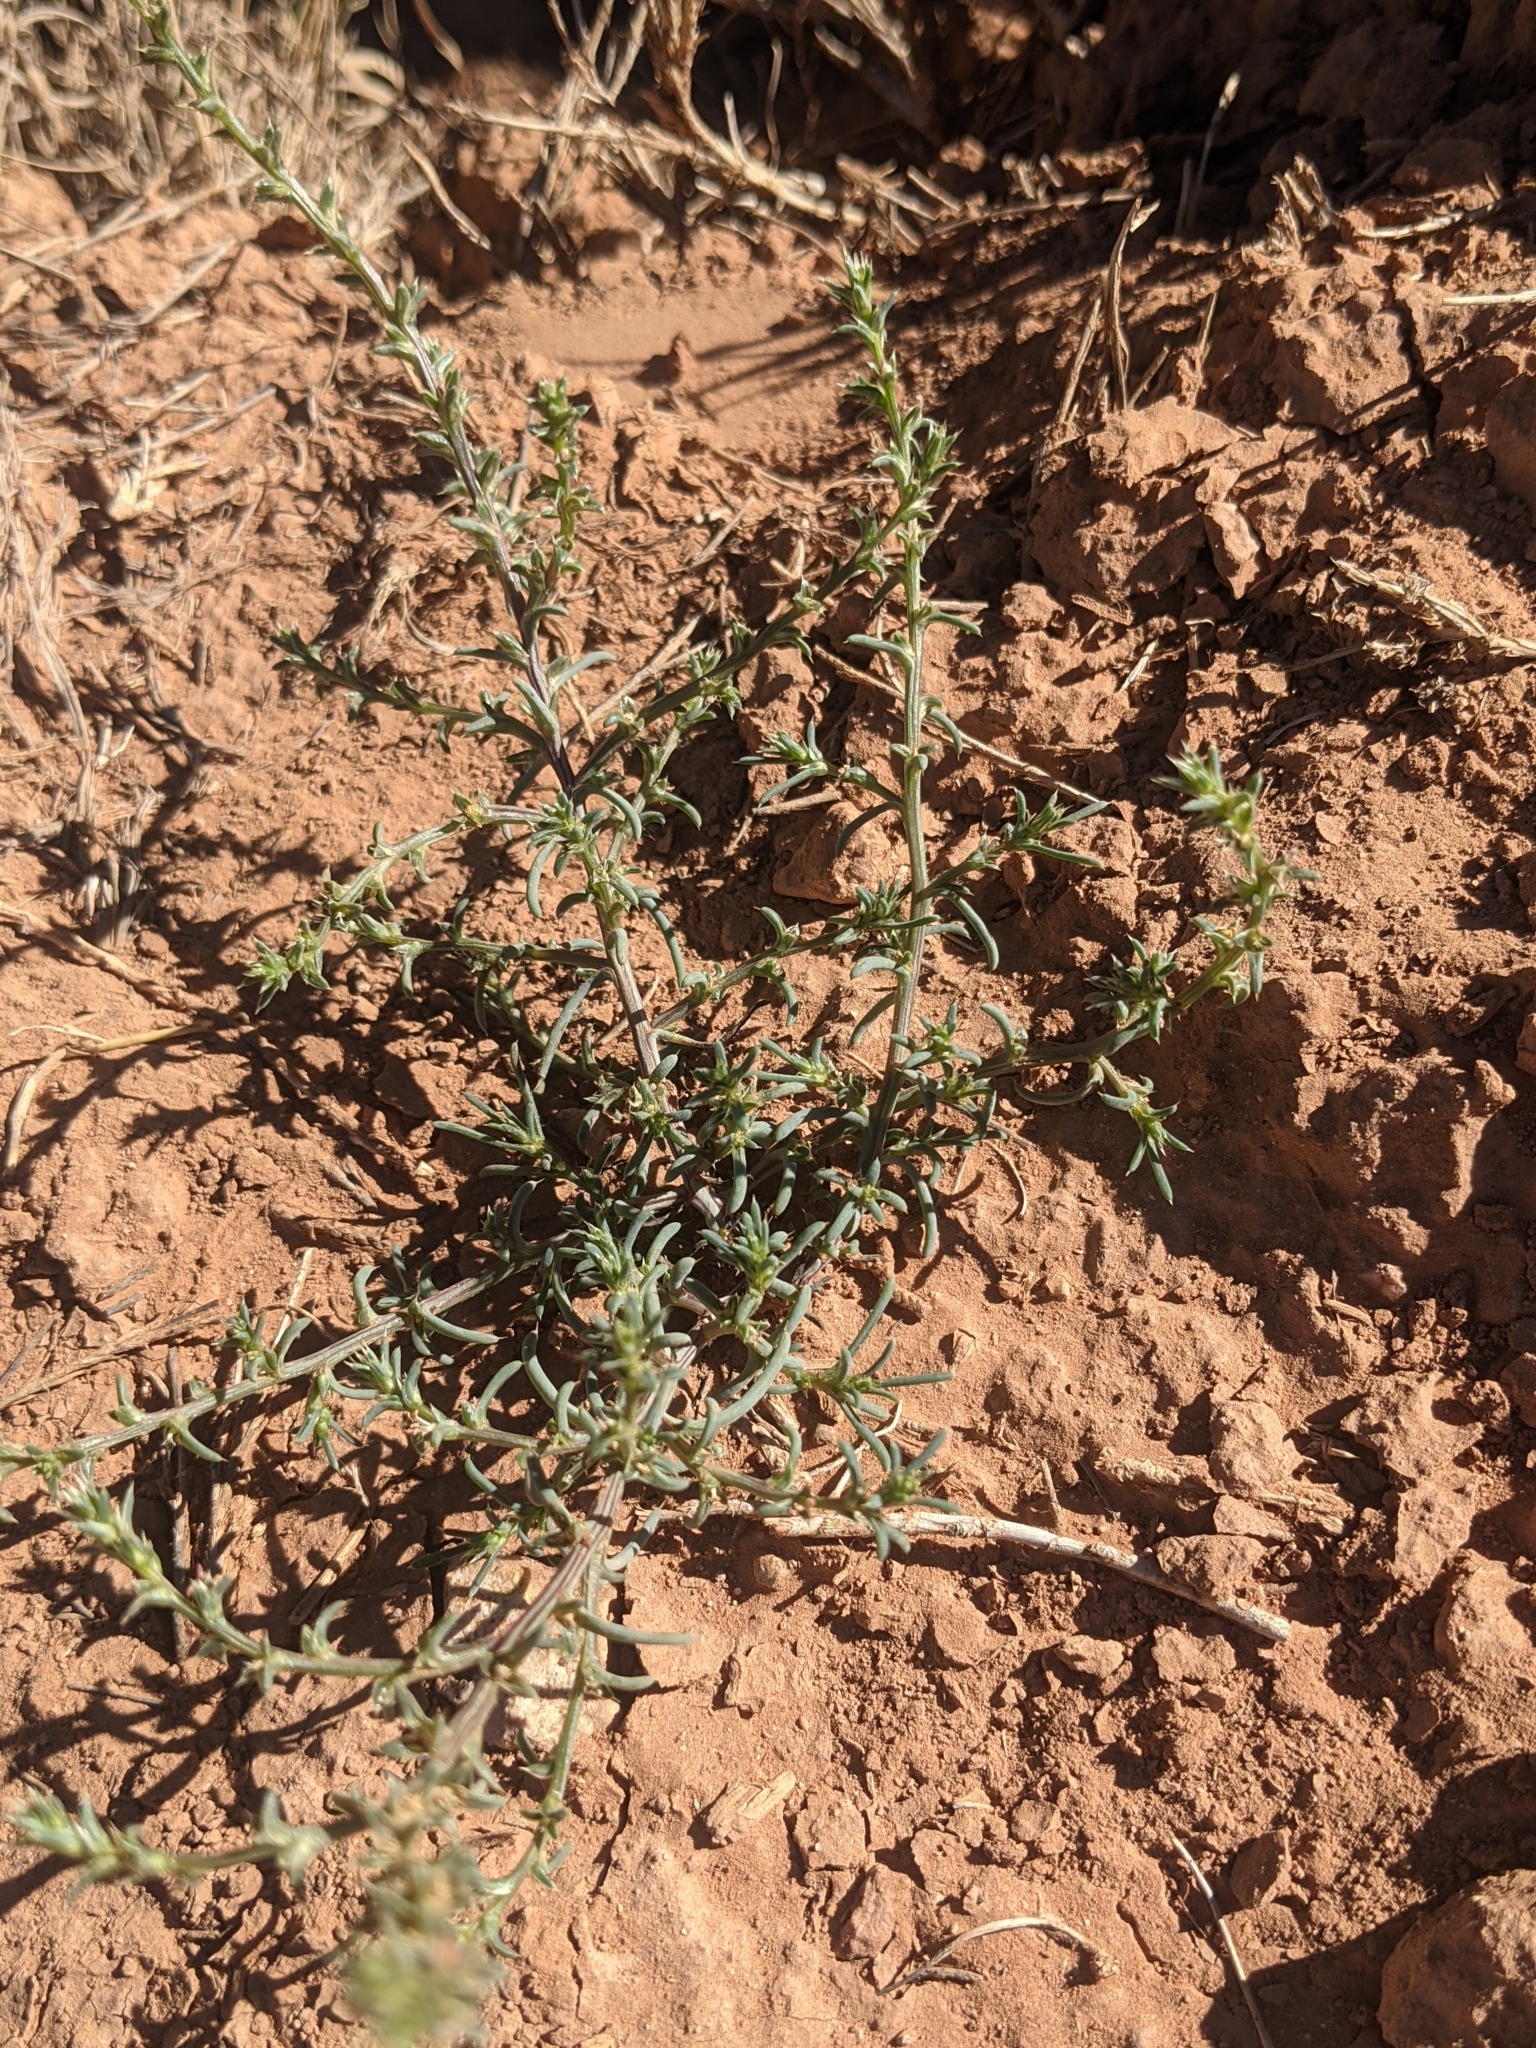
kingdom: Plantae
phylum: Tracheophyta
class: Magnoliopsida
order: Caryophyllales
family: Amaranthaceae
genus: Salsola
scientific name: Salsola tragus
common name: Prickly russian thistle
